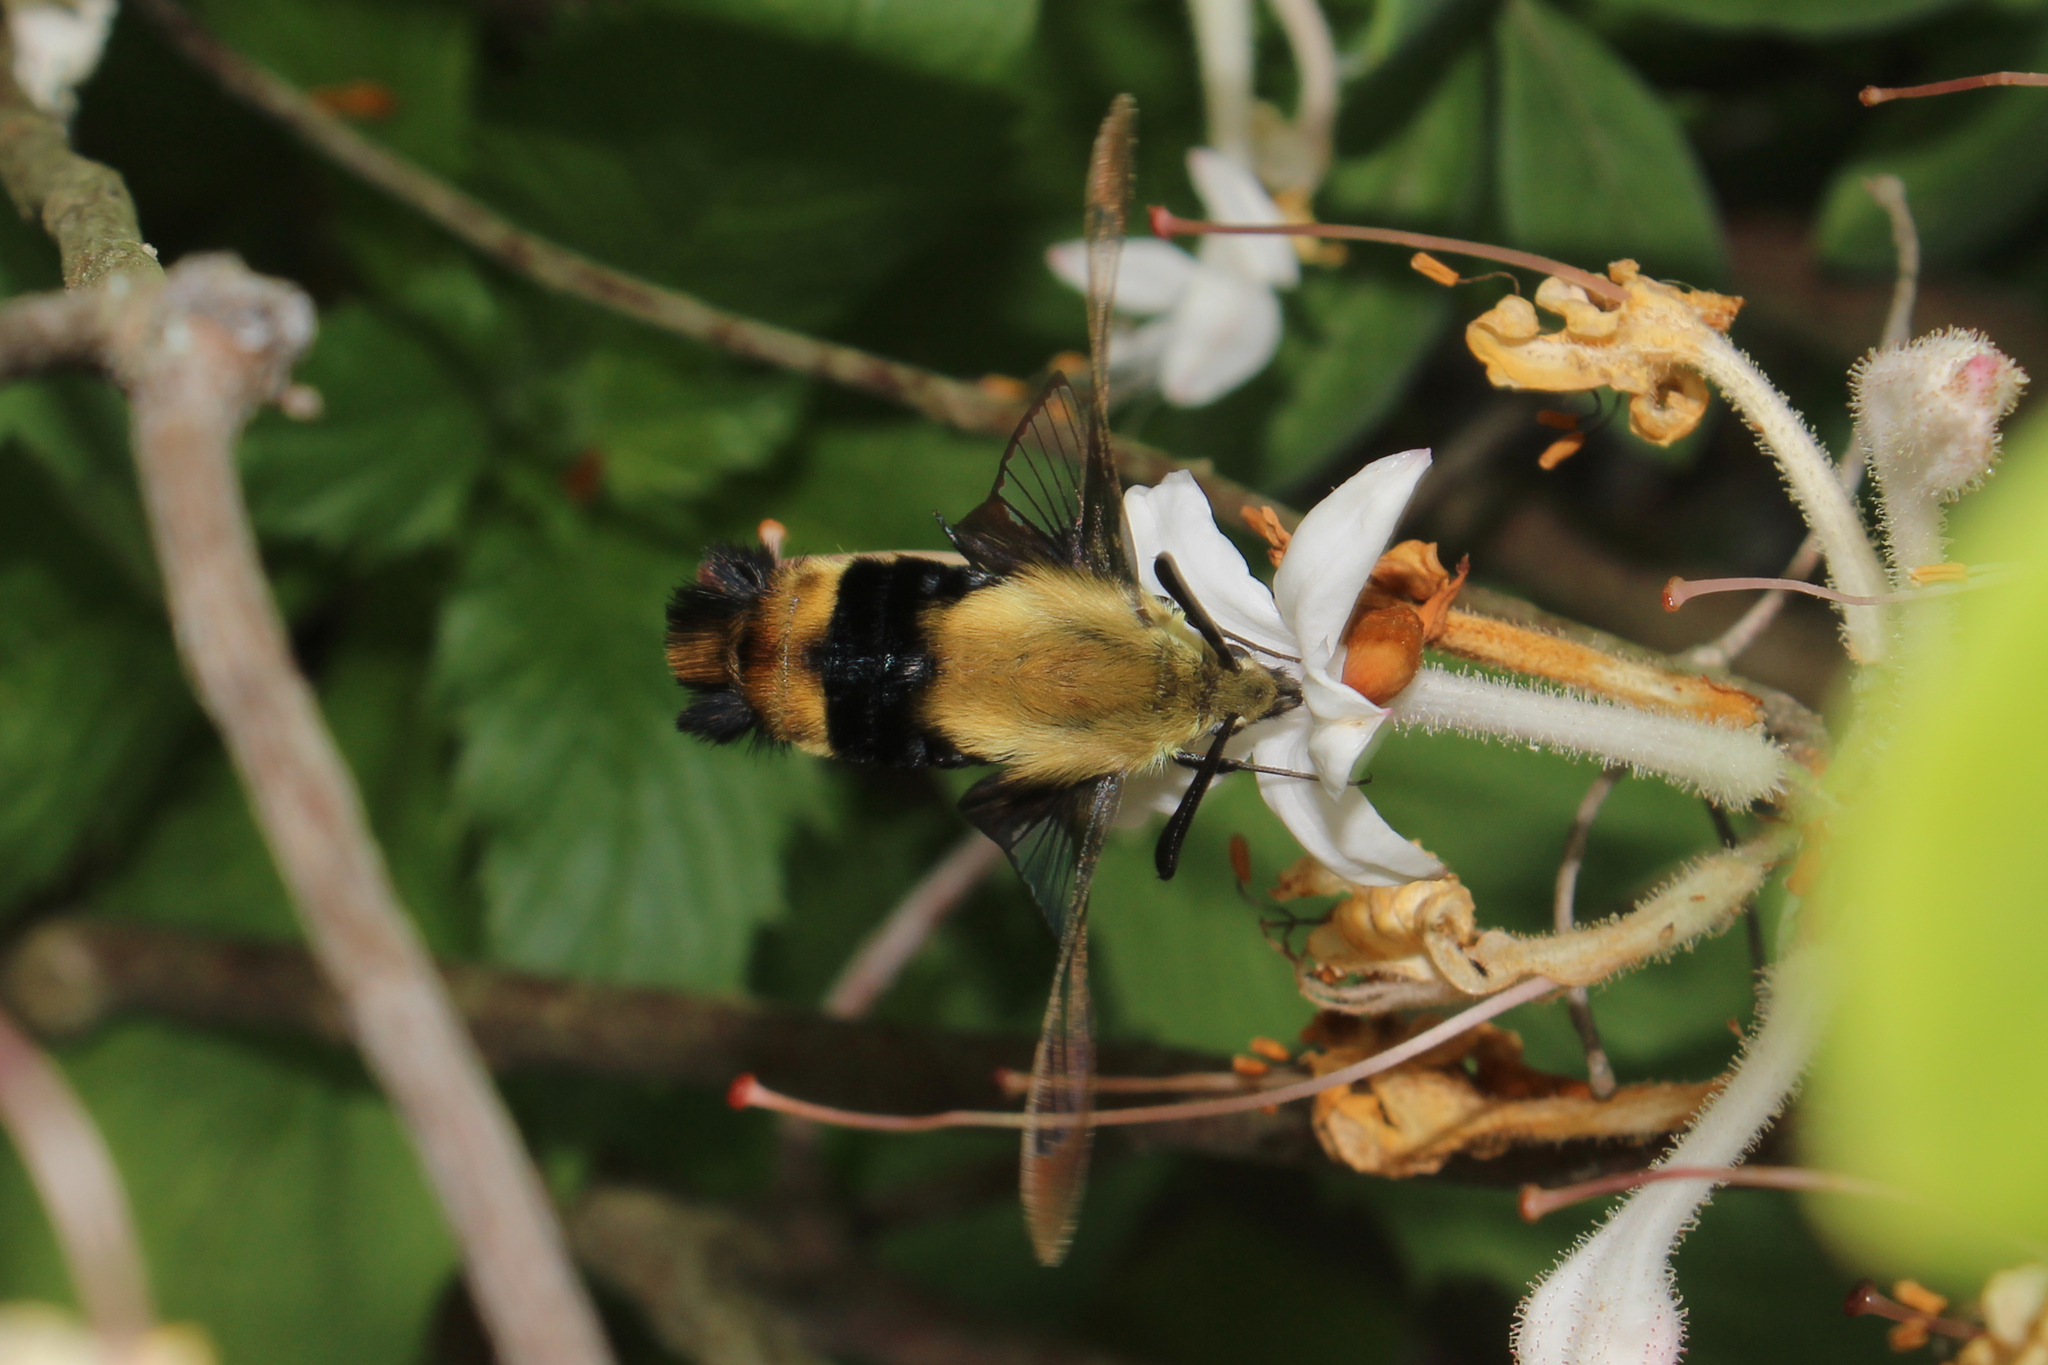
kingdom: Animalia
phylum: Arthropoda
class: Insecta
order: Lepidoptera
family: Sphingidae
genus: Hemaris
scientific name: Hemaris diffinis
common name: Bumblebee moth
